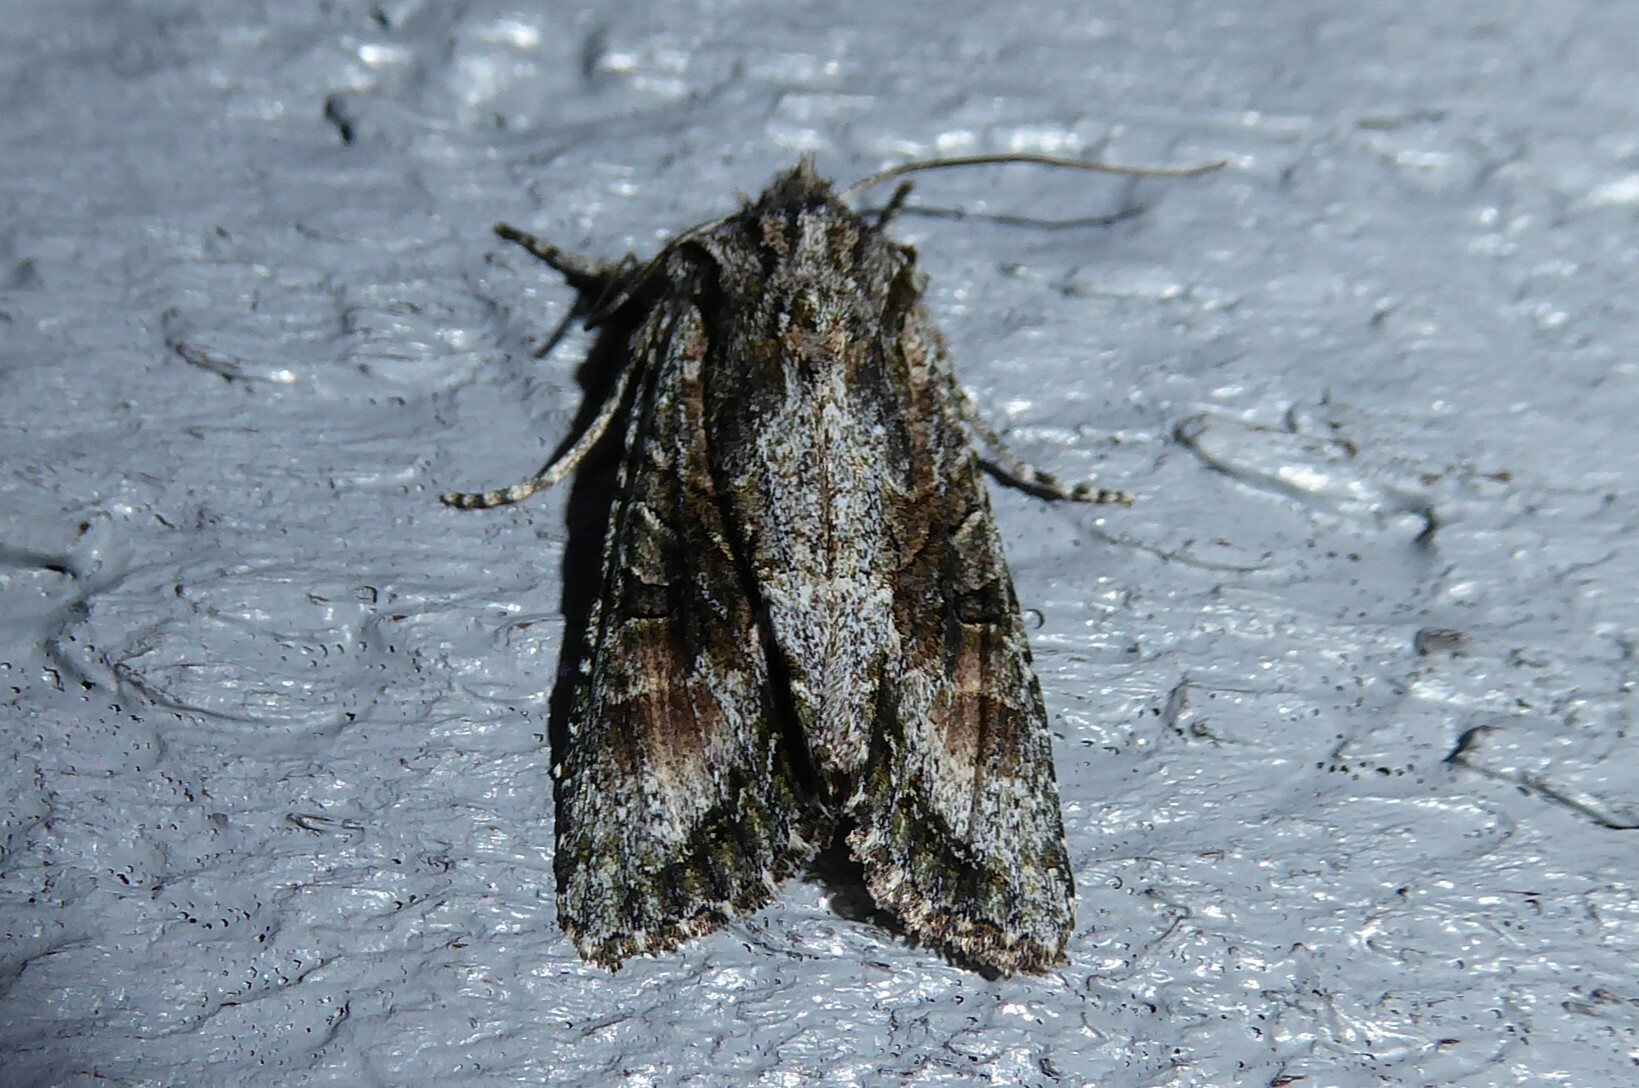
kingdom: Animalia
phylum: Arthropoda
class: Insecta
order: Lepidoptera
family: Noctuidae
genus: Ichneutica
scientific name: Ichneutica mutans
